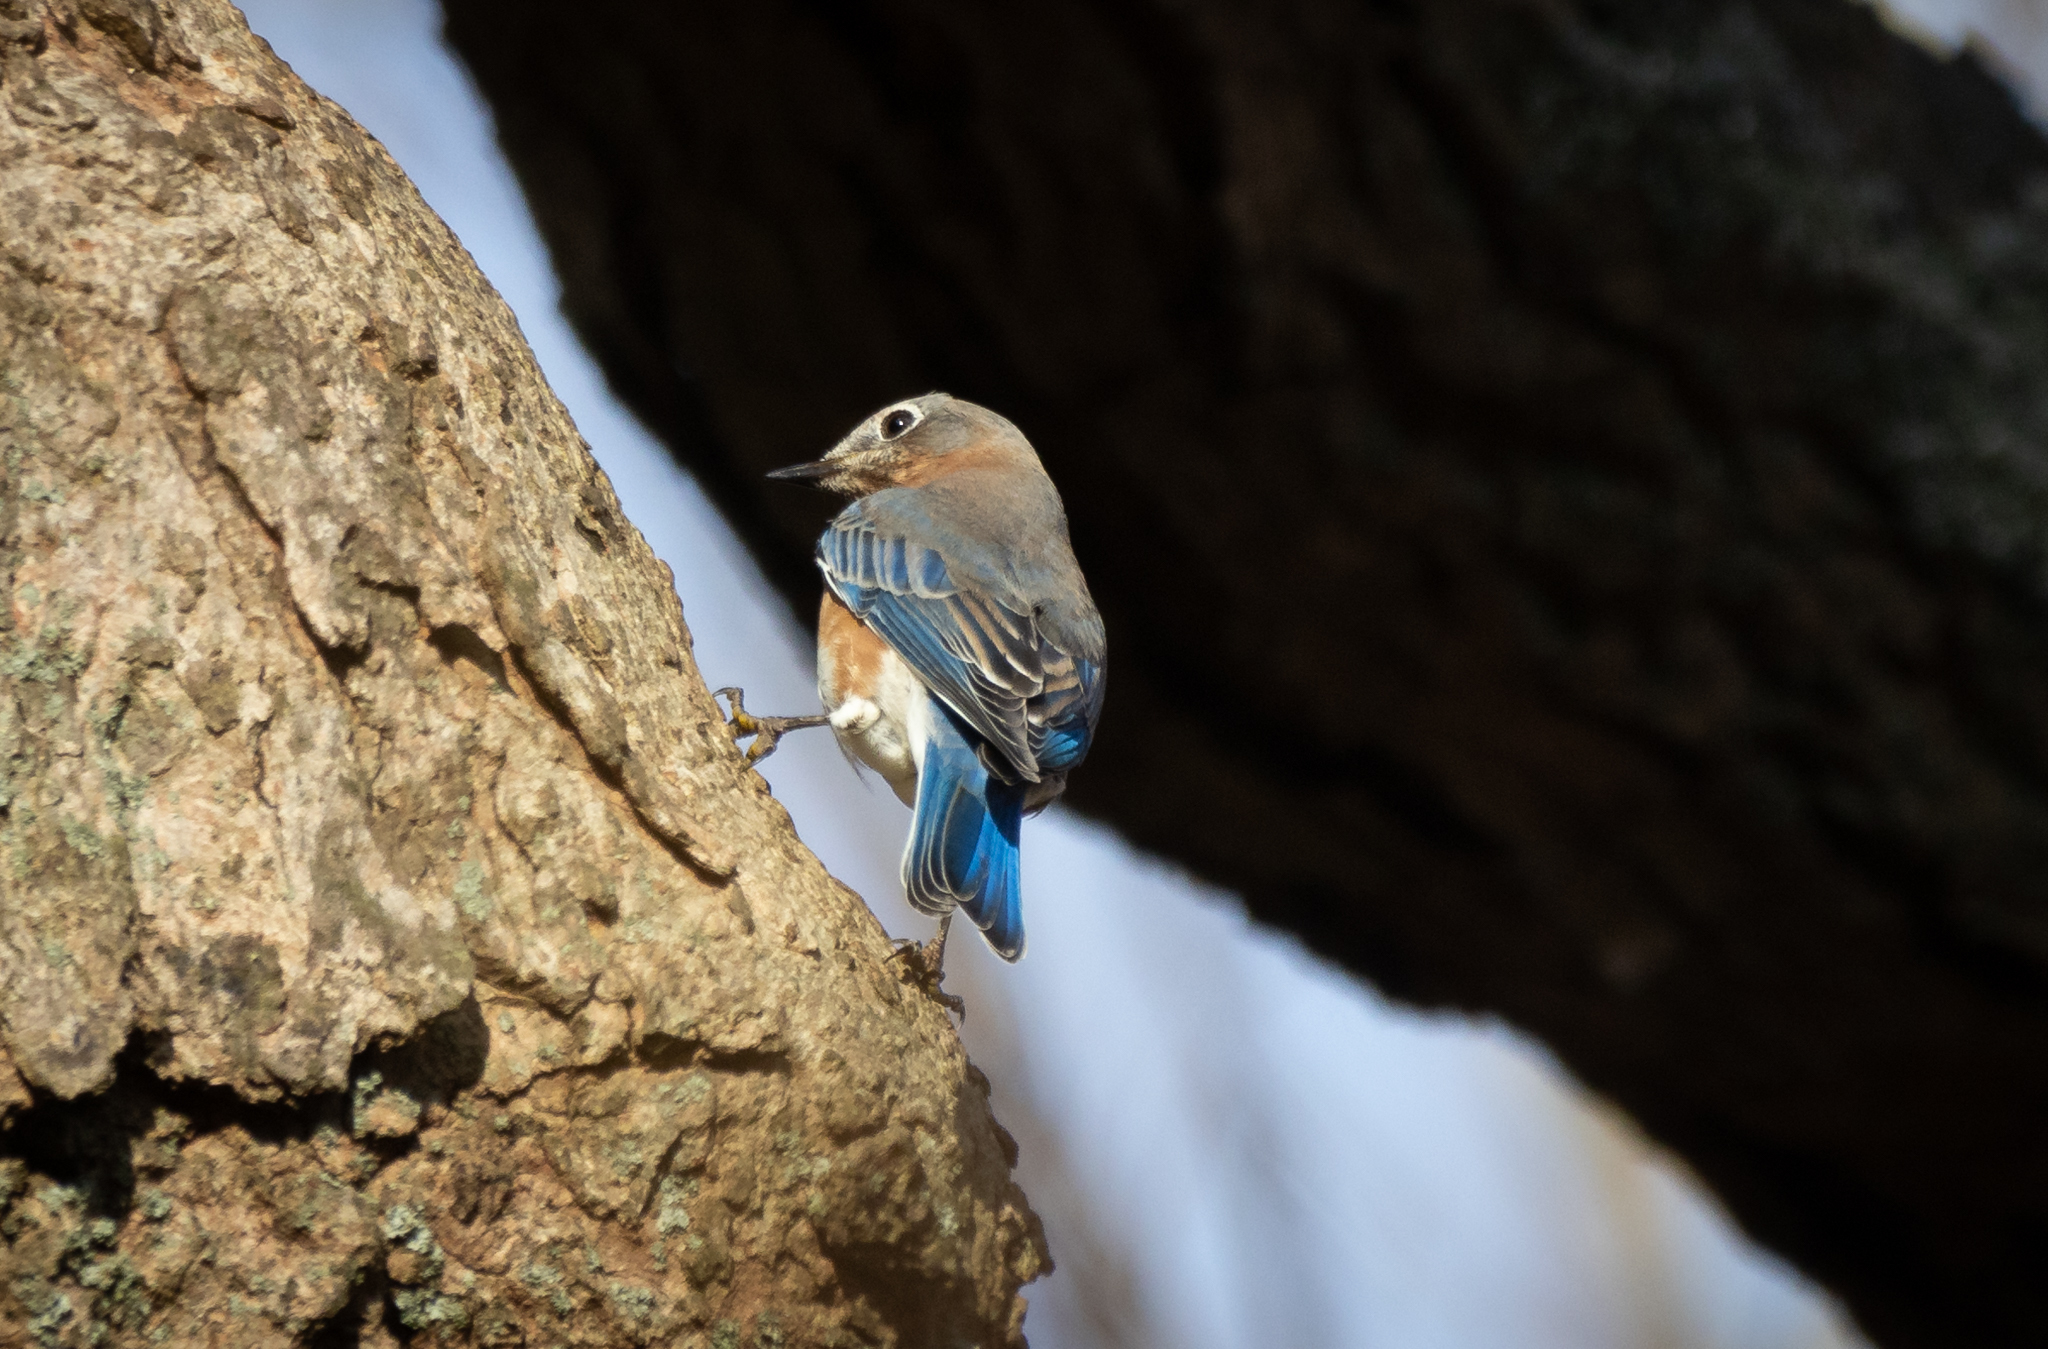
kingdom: Animalia
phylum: Chordata
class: Aves
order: Passeriformes
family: Turdidae
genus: Sialia
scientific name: Sialia sialis
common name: Eastern bluebird
